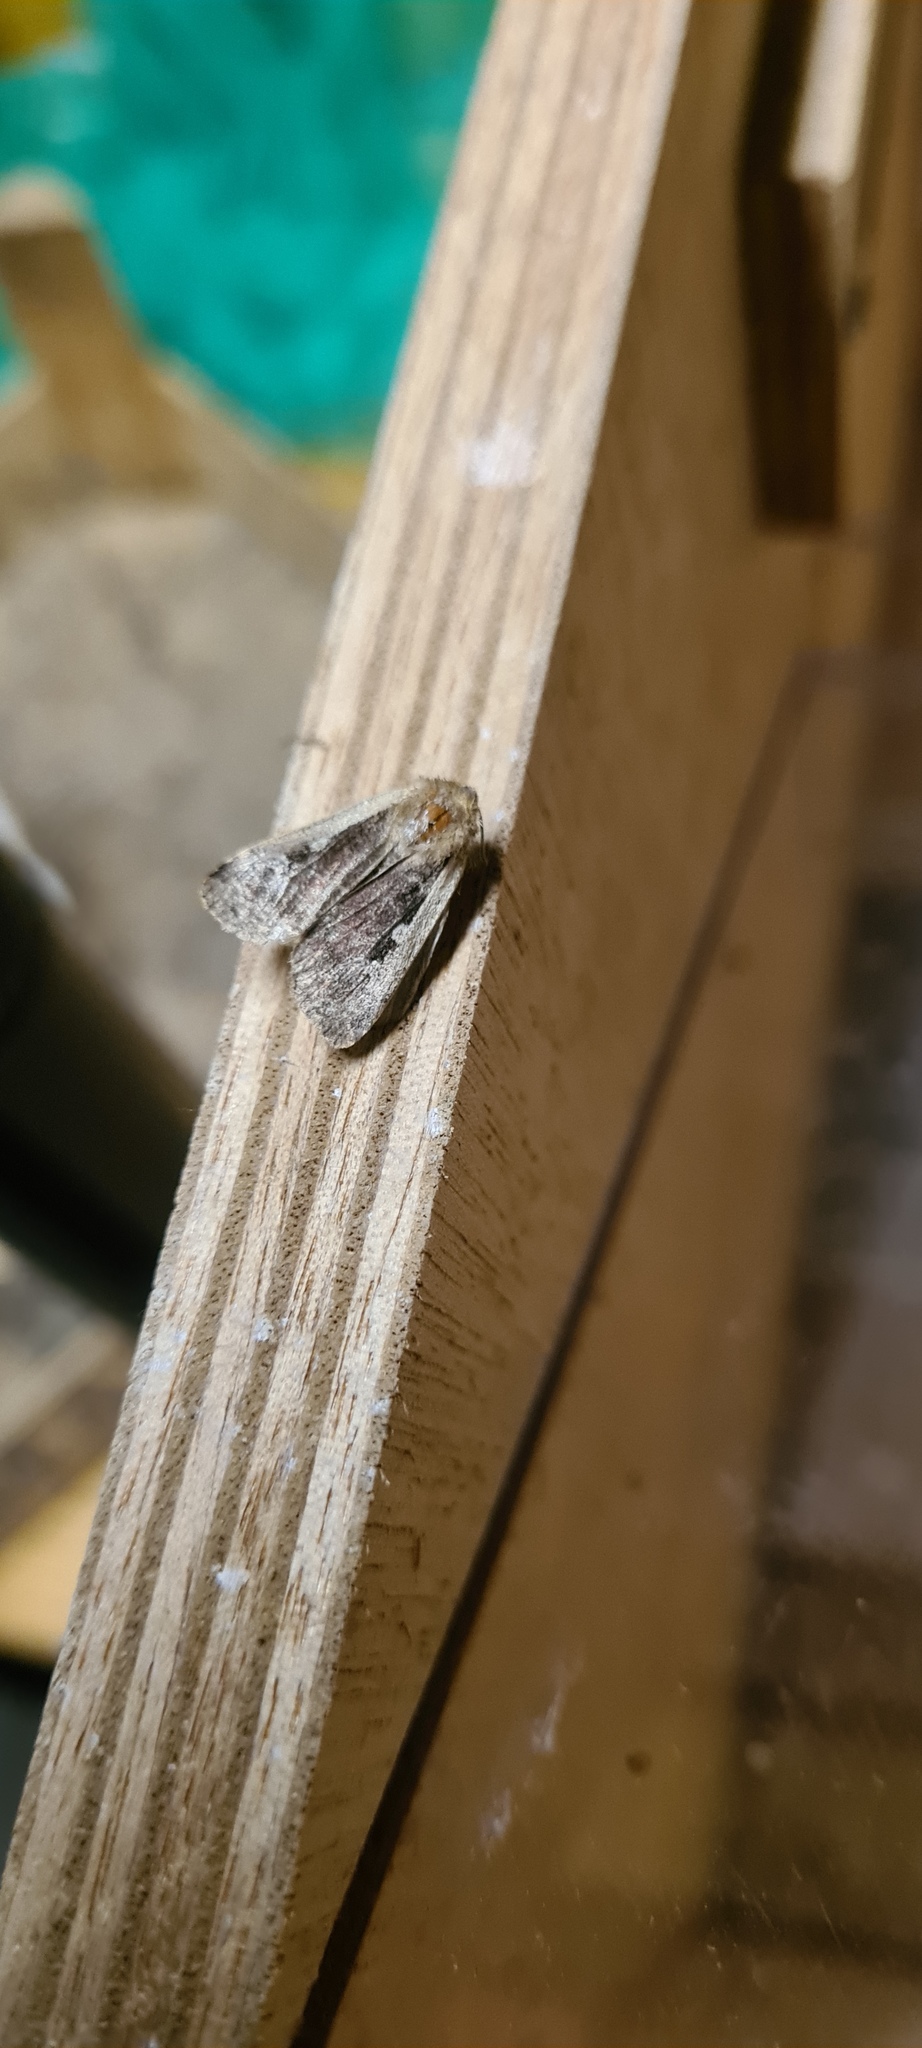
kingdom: Animalia
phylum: Arthropoda
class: Insecta
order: Lepidoptera
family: Noctuidae
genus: Ochropleura
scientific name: Ochropleura plecta
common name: Flame shoulder
